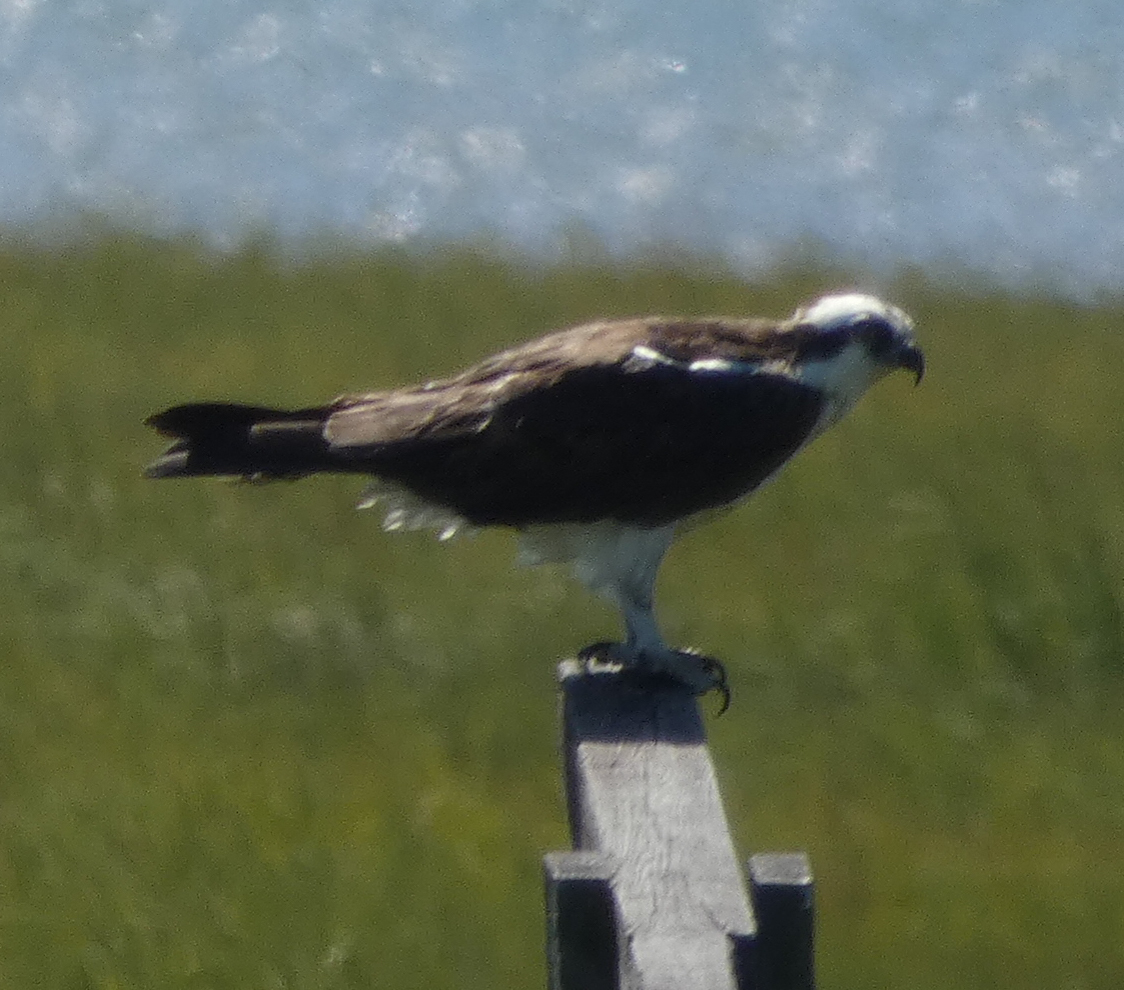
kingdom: Animalia
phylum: Chordata
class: Aves
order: Accipitriformes
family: Pandionidae
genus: Pandion
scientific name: Pandion haliaetus
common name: Osprey
